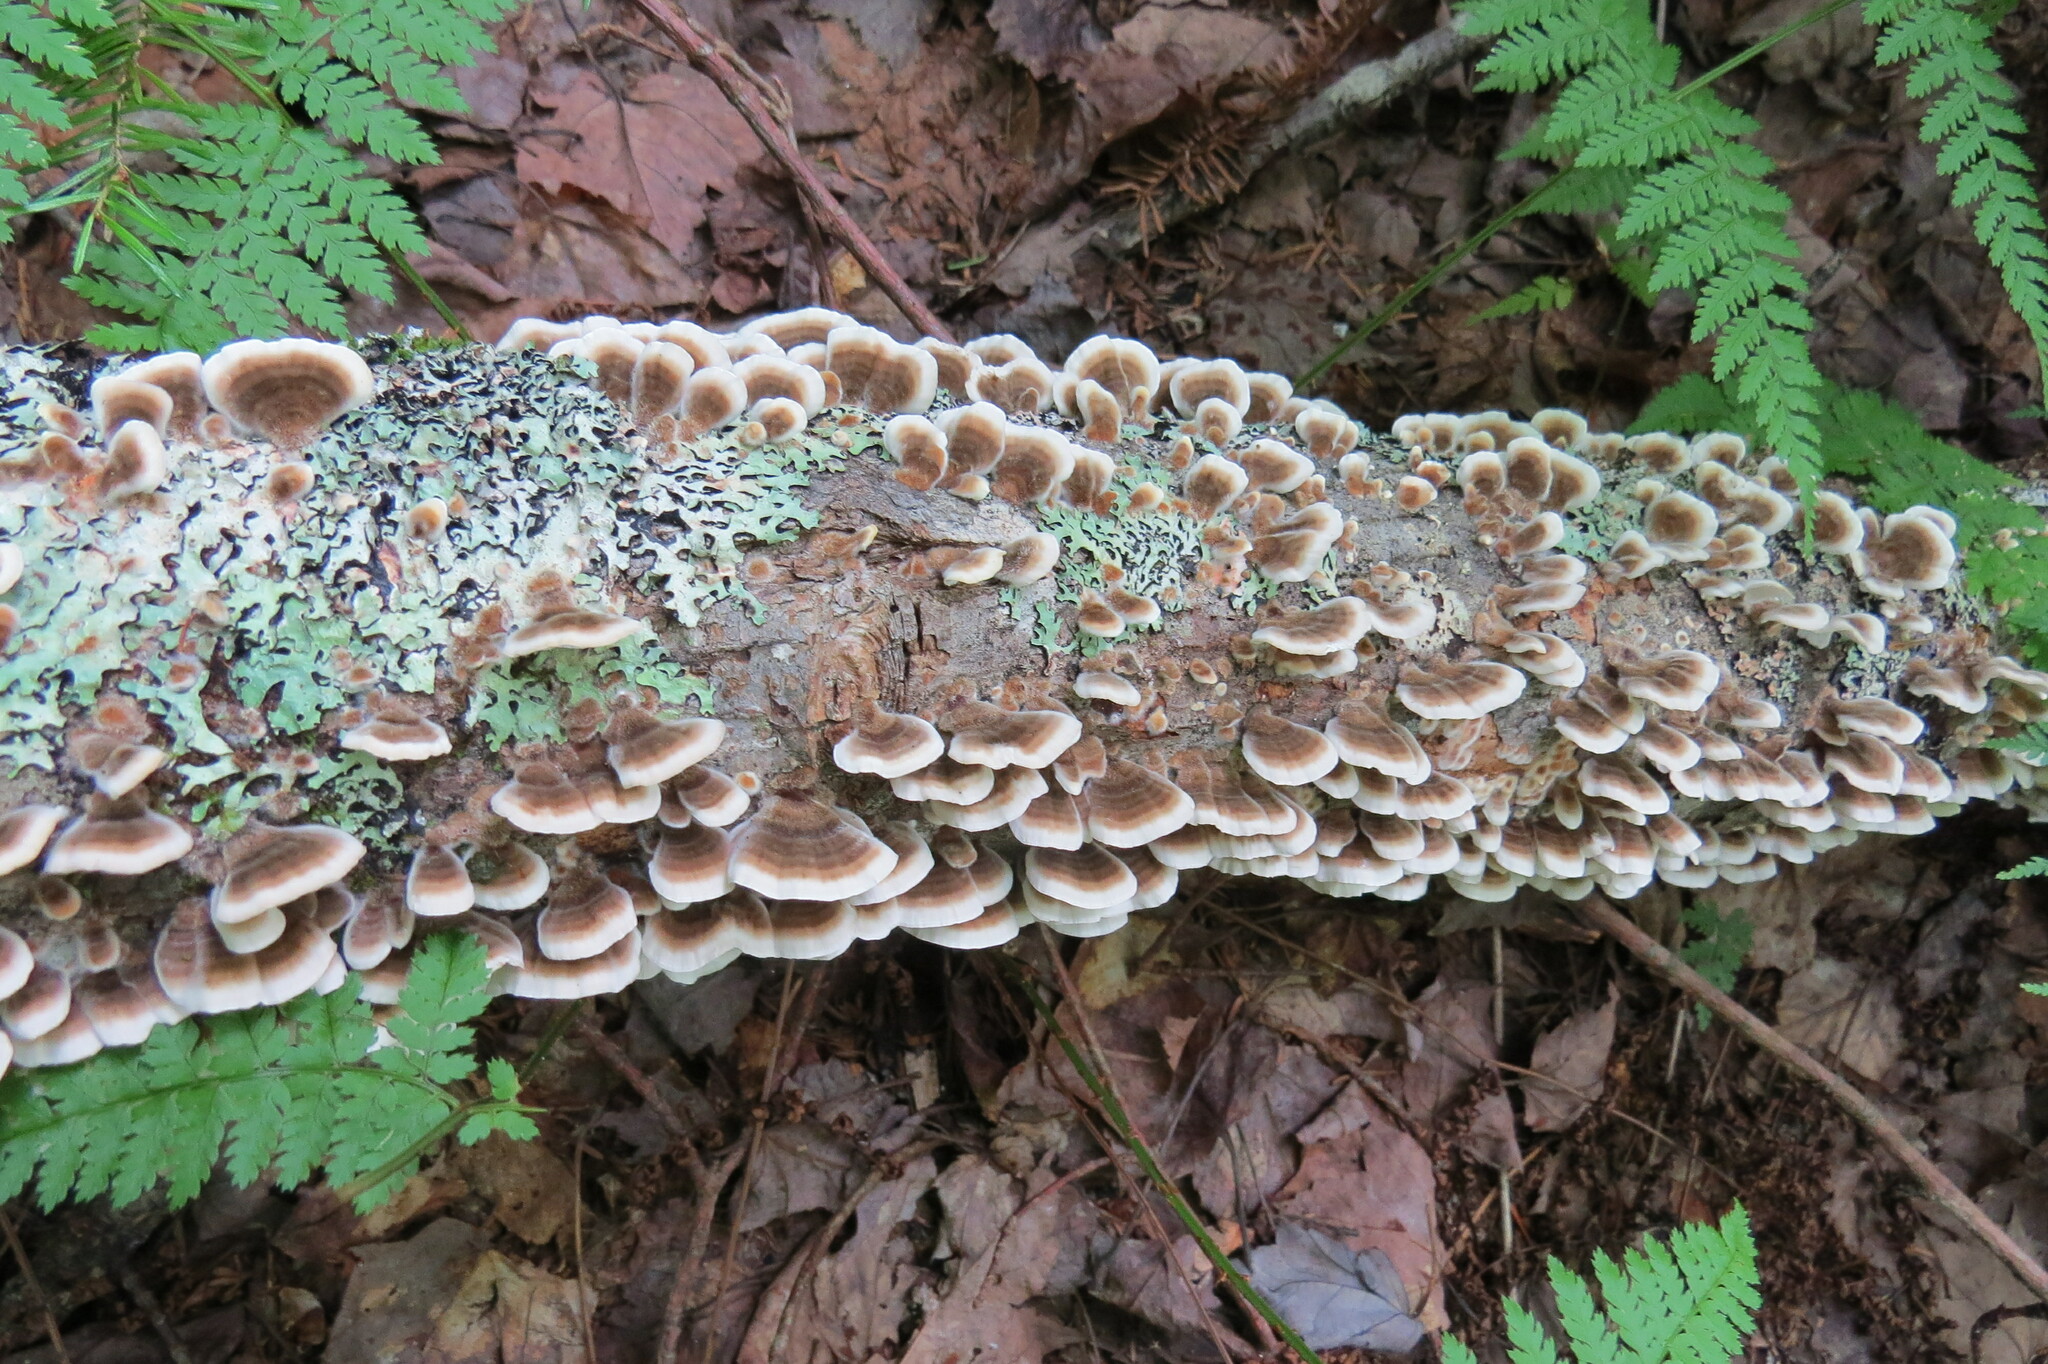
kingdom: Fungi
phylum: Basidiomycota
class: Agaricomycetes
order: Polyporales
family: Polyporaceae
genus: Trametes
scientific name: Trametes versicolor
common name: Turkeytail
